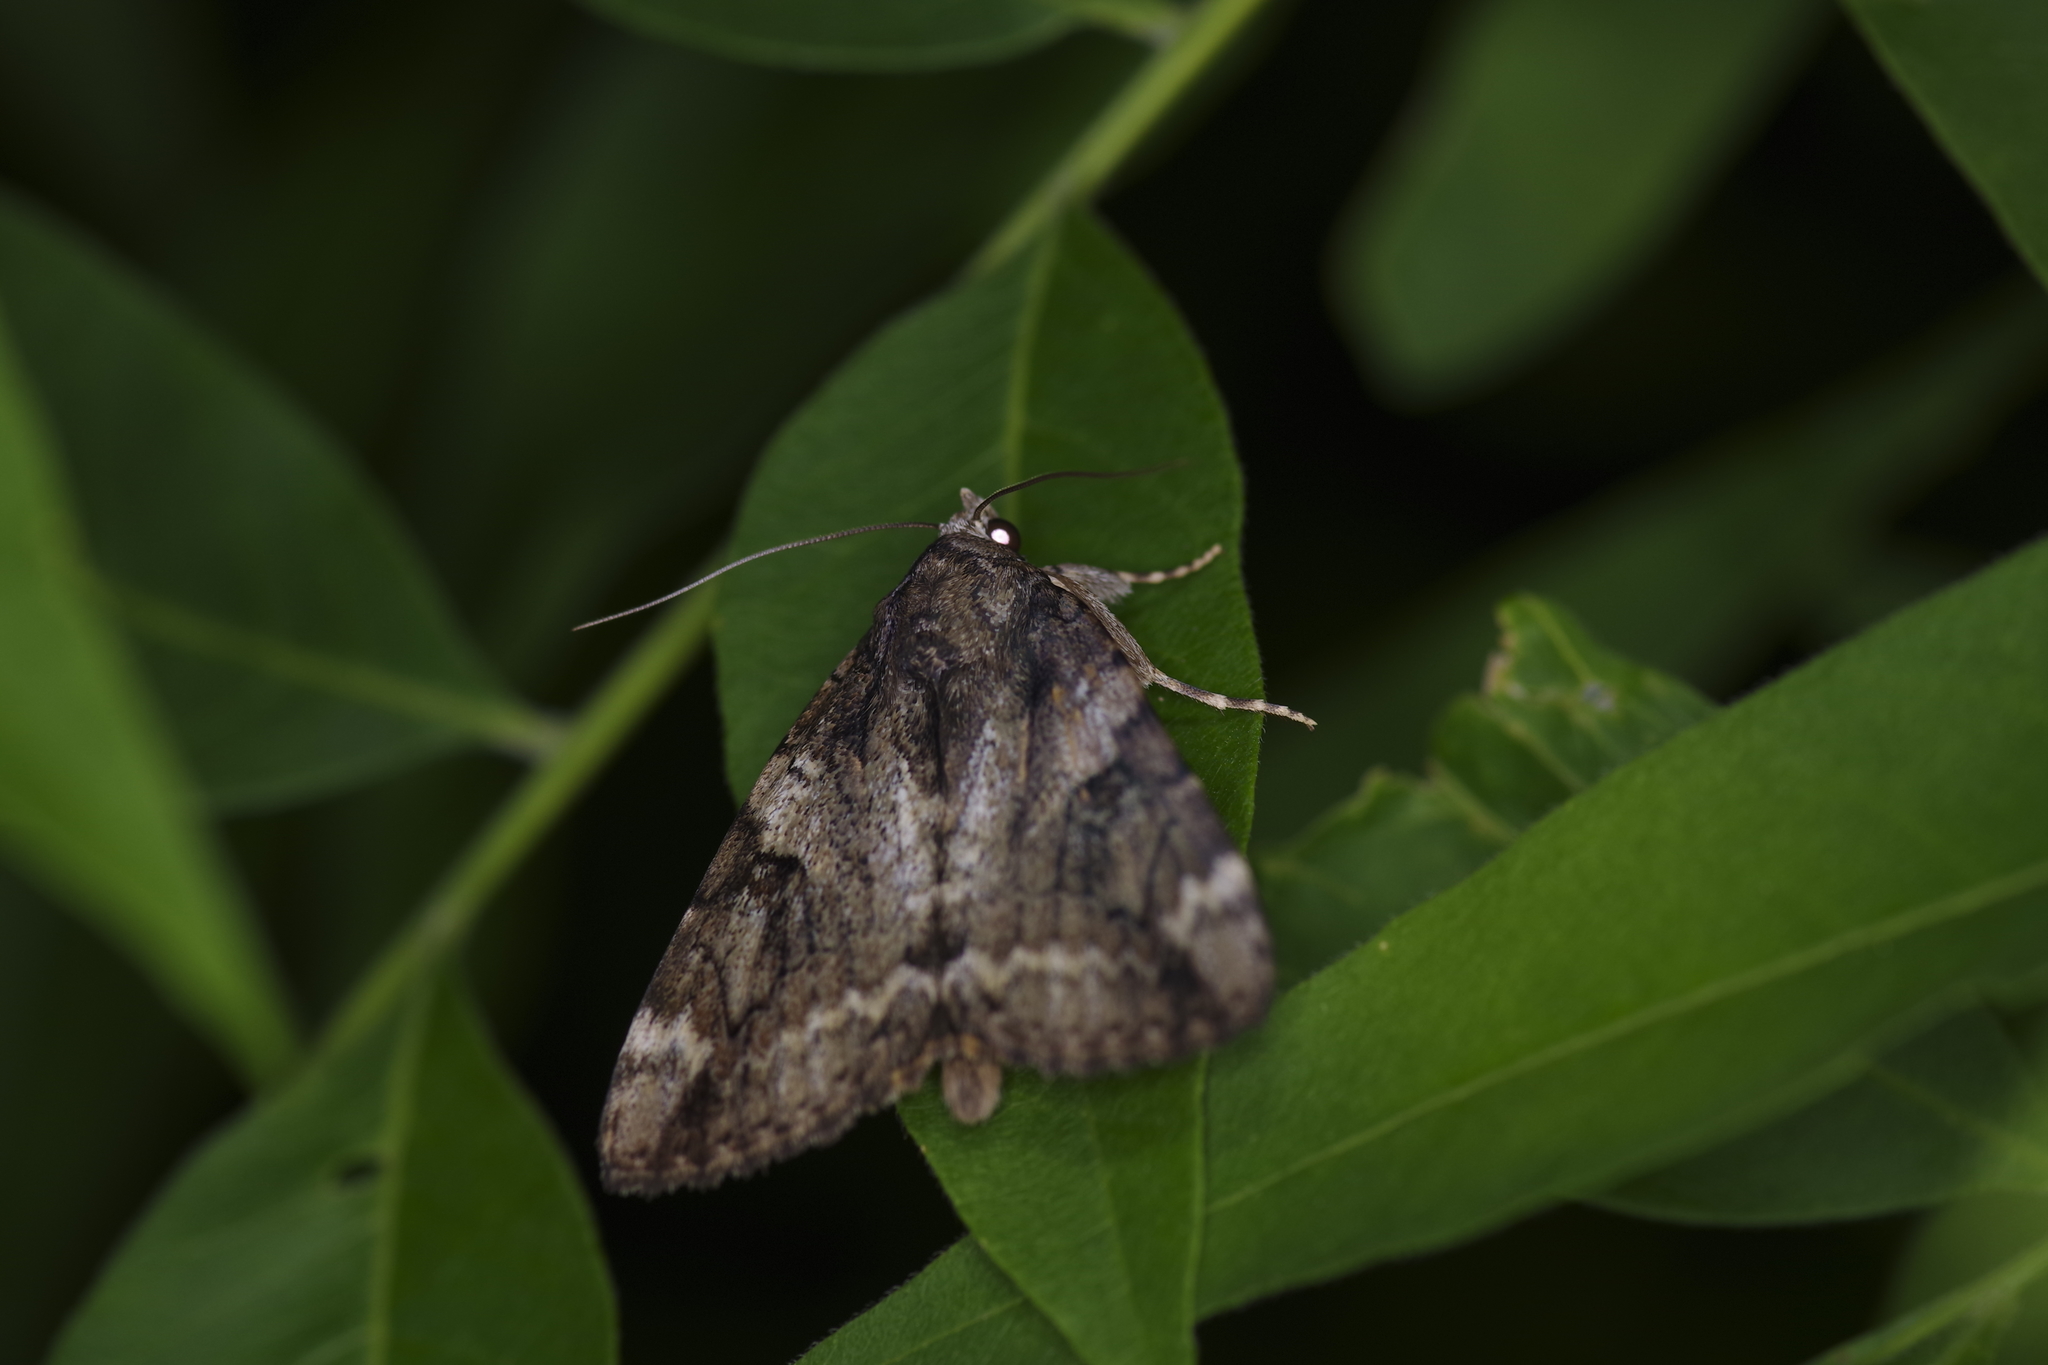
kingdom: Animalia
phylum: Arthropoda
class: Insecta
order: Lepidoptera
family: Erebidae
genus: Catocala
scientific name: Catocala micronympha
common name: Little nymph underwing
